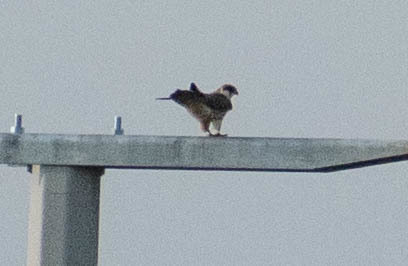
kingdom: Animalia
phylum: Chordata
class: Aves
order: Falconiformes
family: Falconidae
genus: Falco
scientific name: Falco vespertinus
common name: Red-footed falcon
